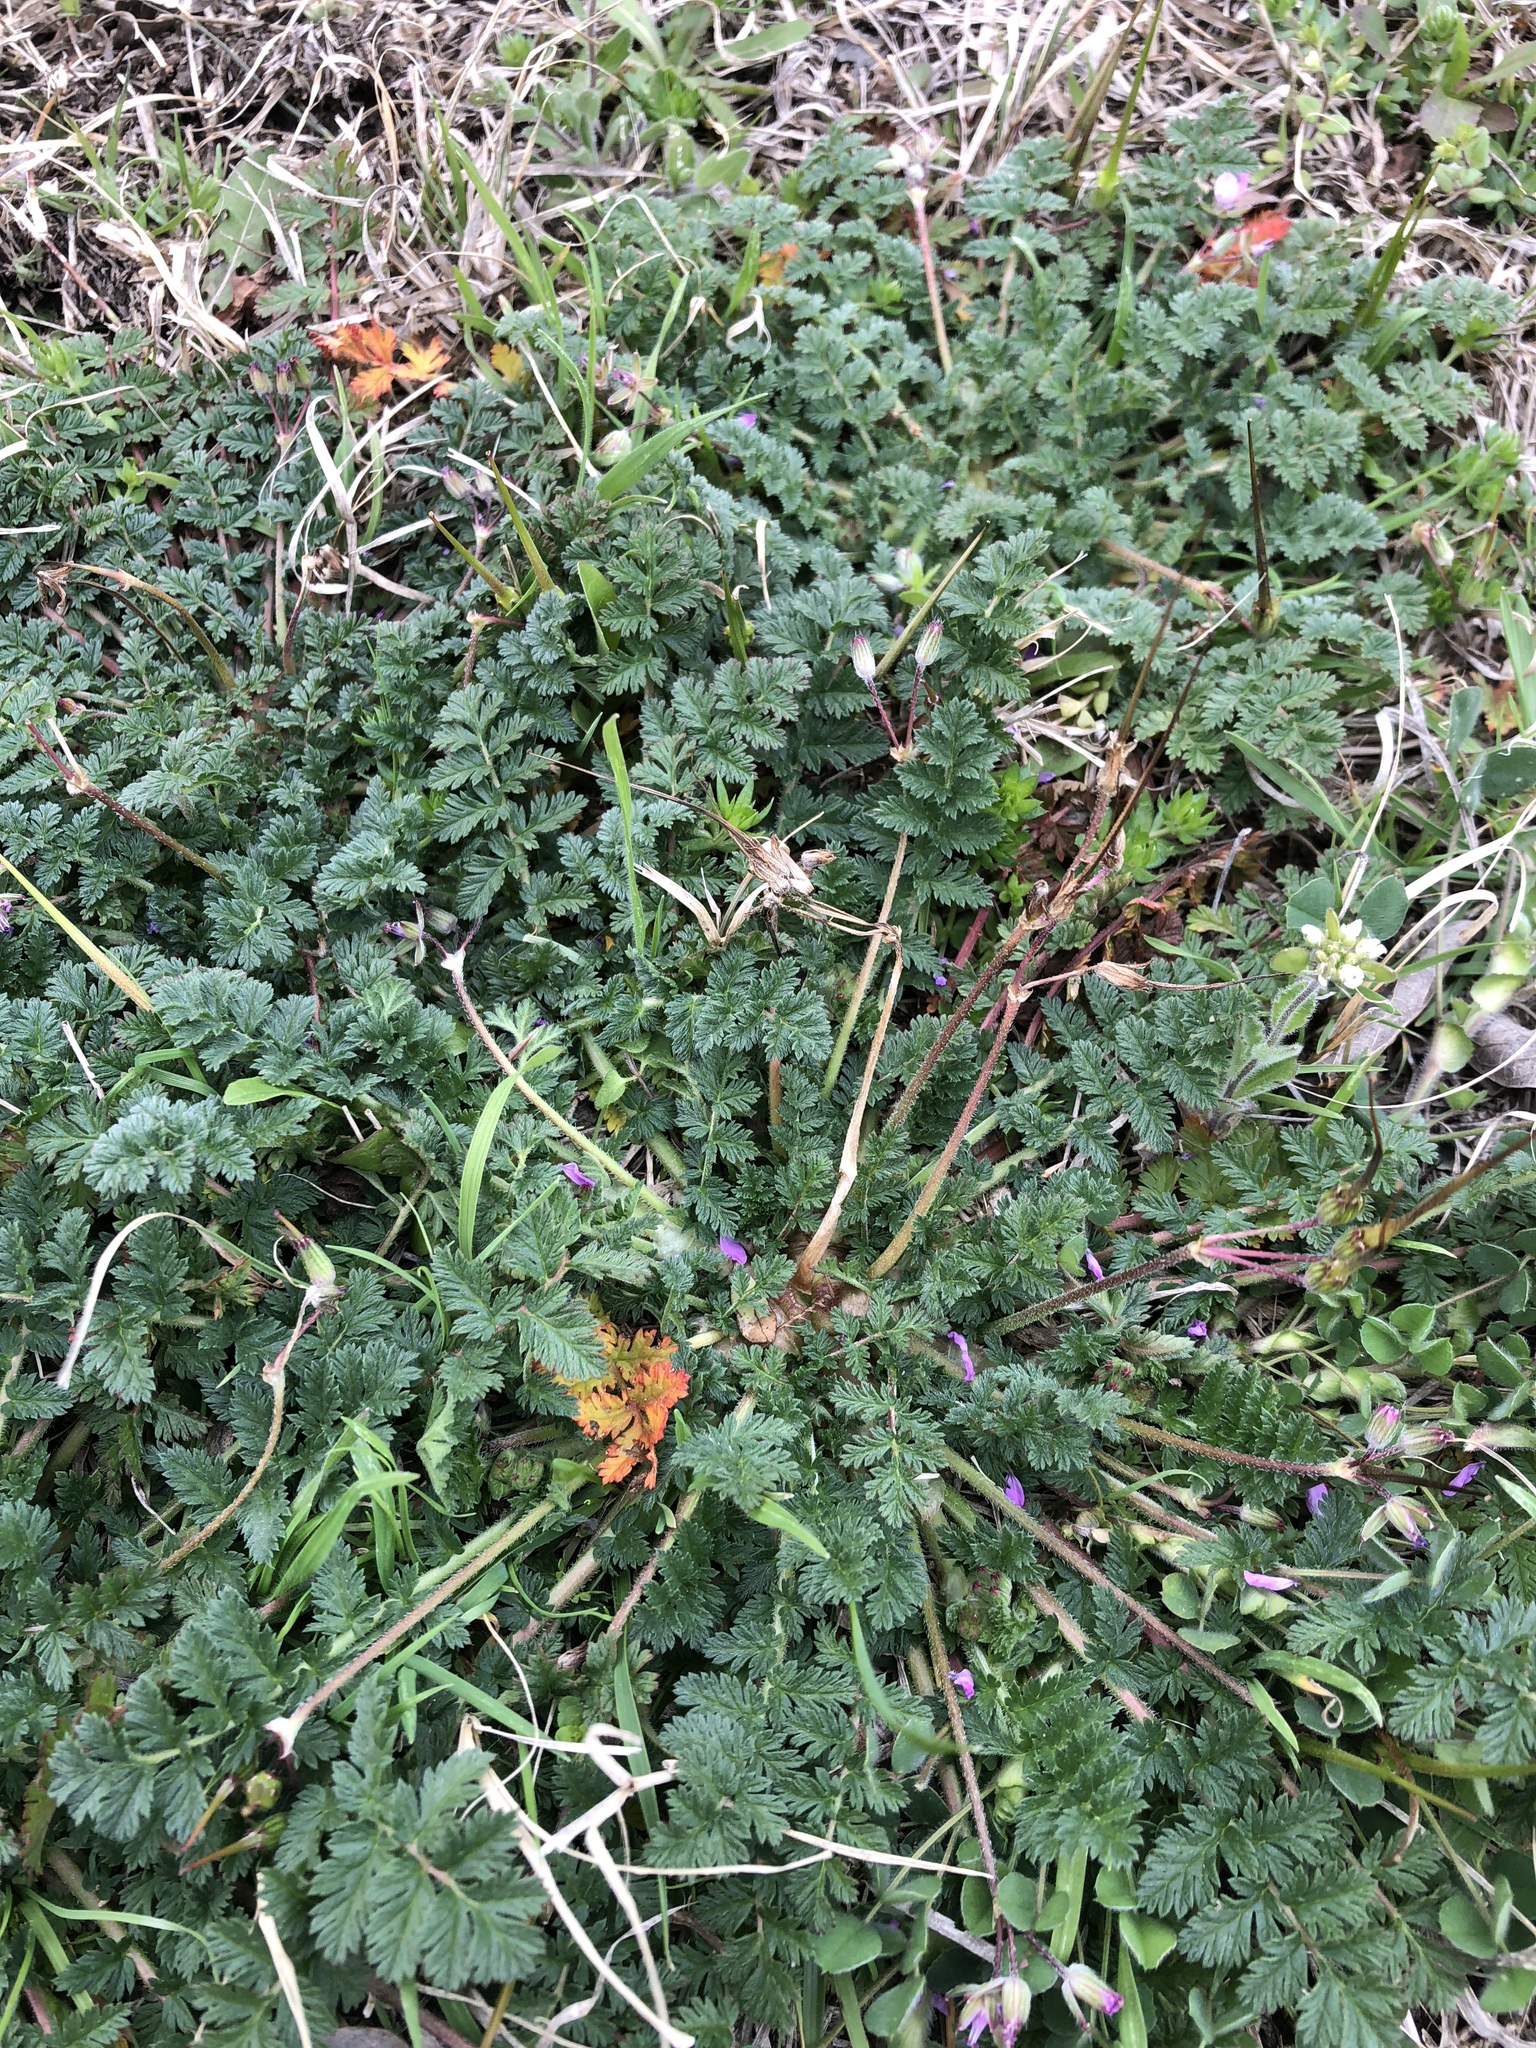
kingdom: Plantae
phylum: Tracheophyta
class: Magnoliopsida
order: Geraniales
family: Geraniaceae
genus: Erodium
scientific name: Erodium cicutarium
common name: Common stork's-bill
